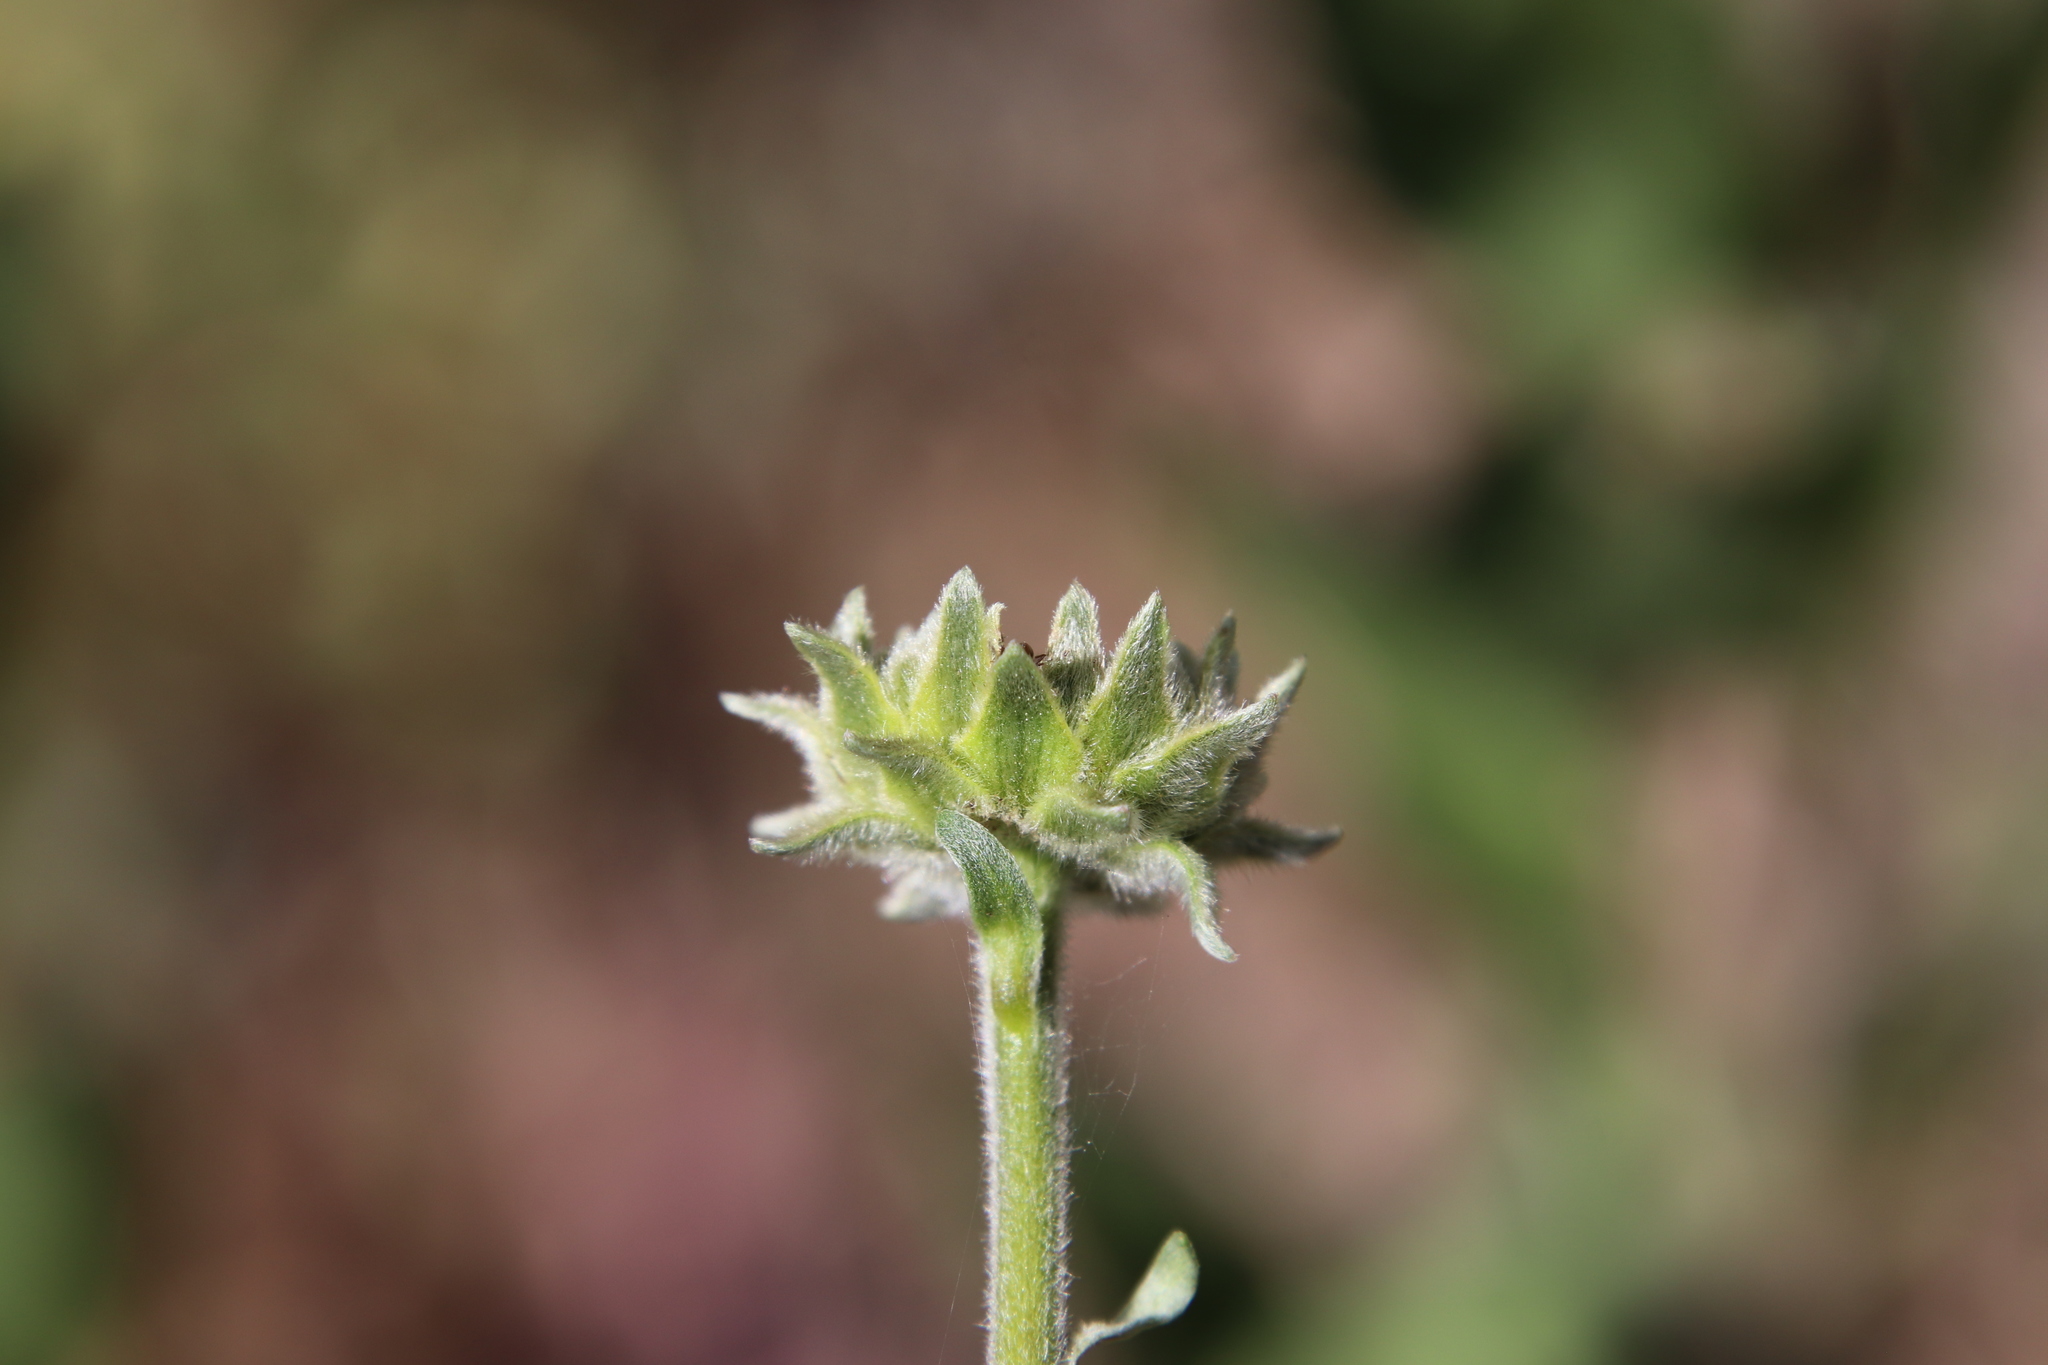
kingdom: Plantae
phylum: Tracheophyta
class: Magnoliopsida
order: Asterales
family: Asteraceae
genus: Encelia
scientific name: Encelia californica
